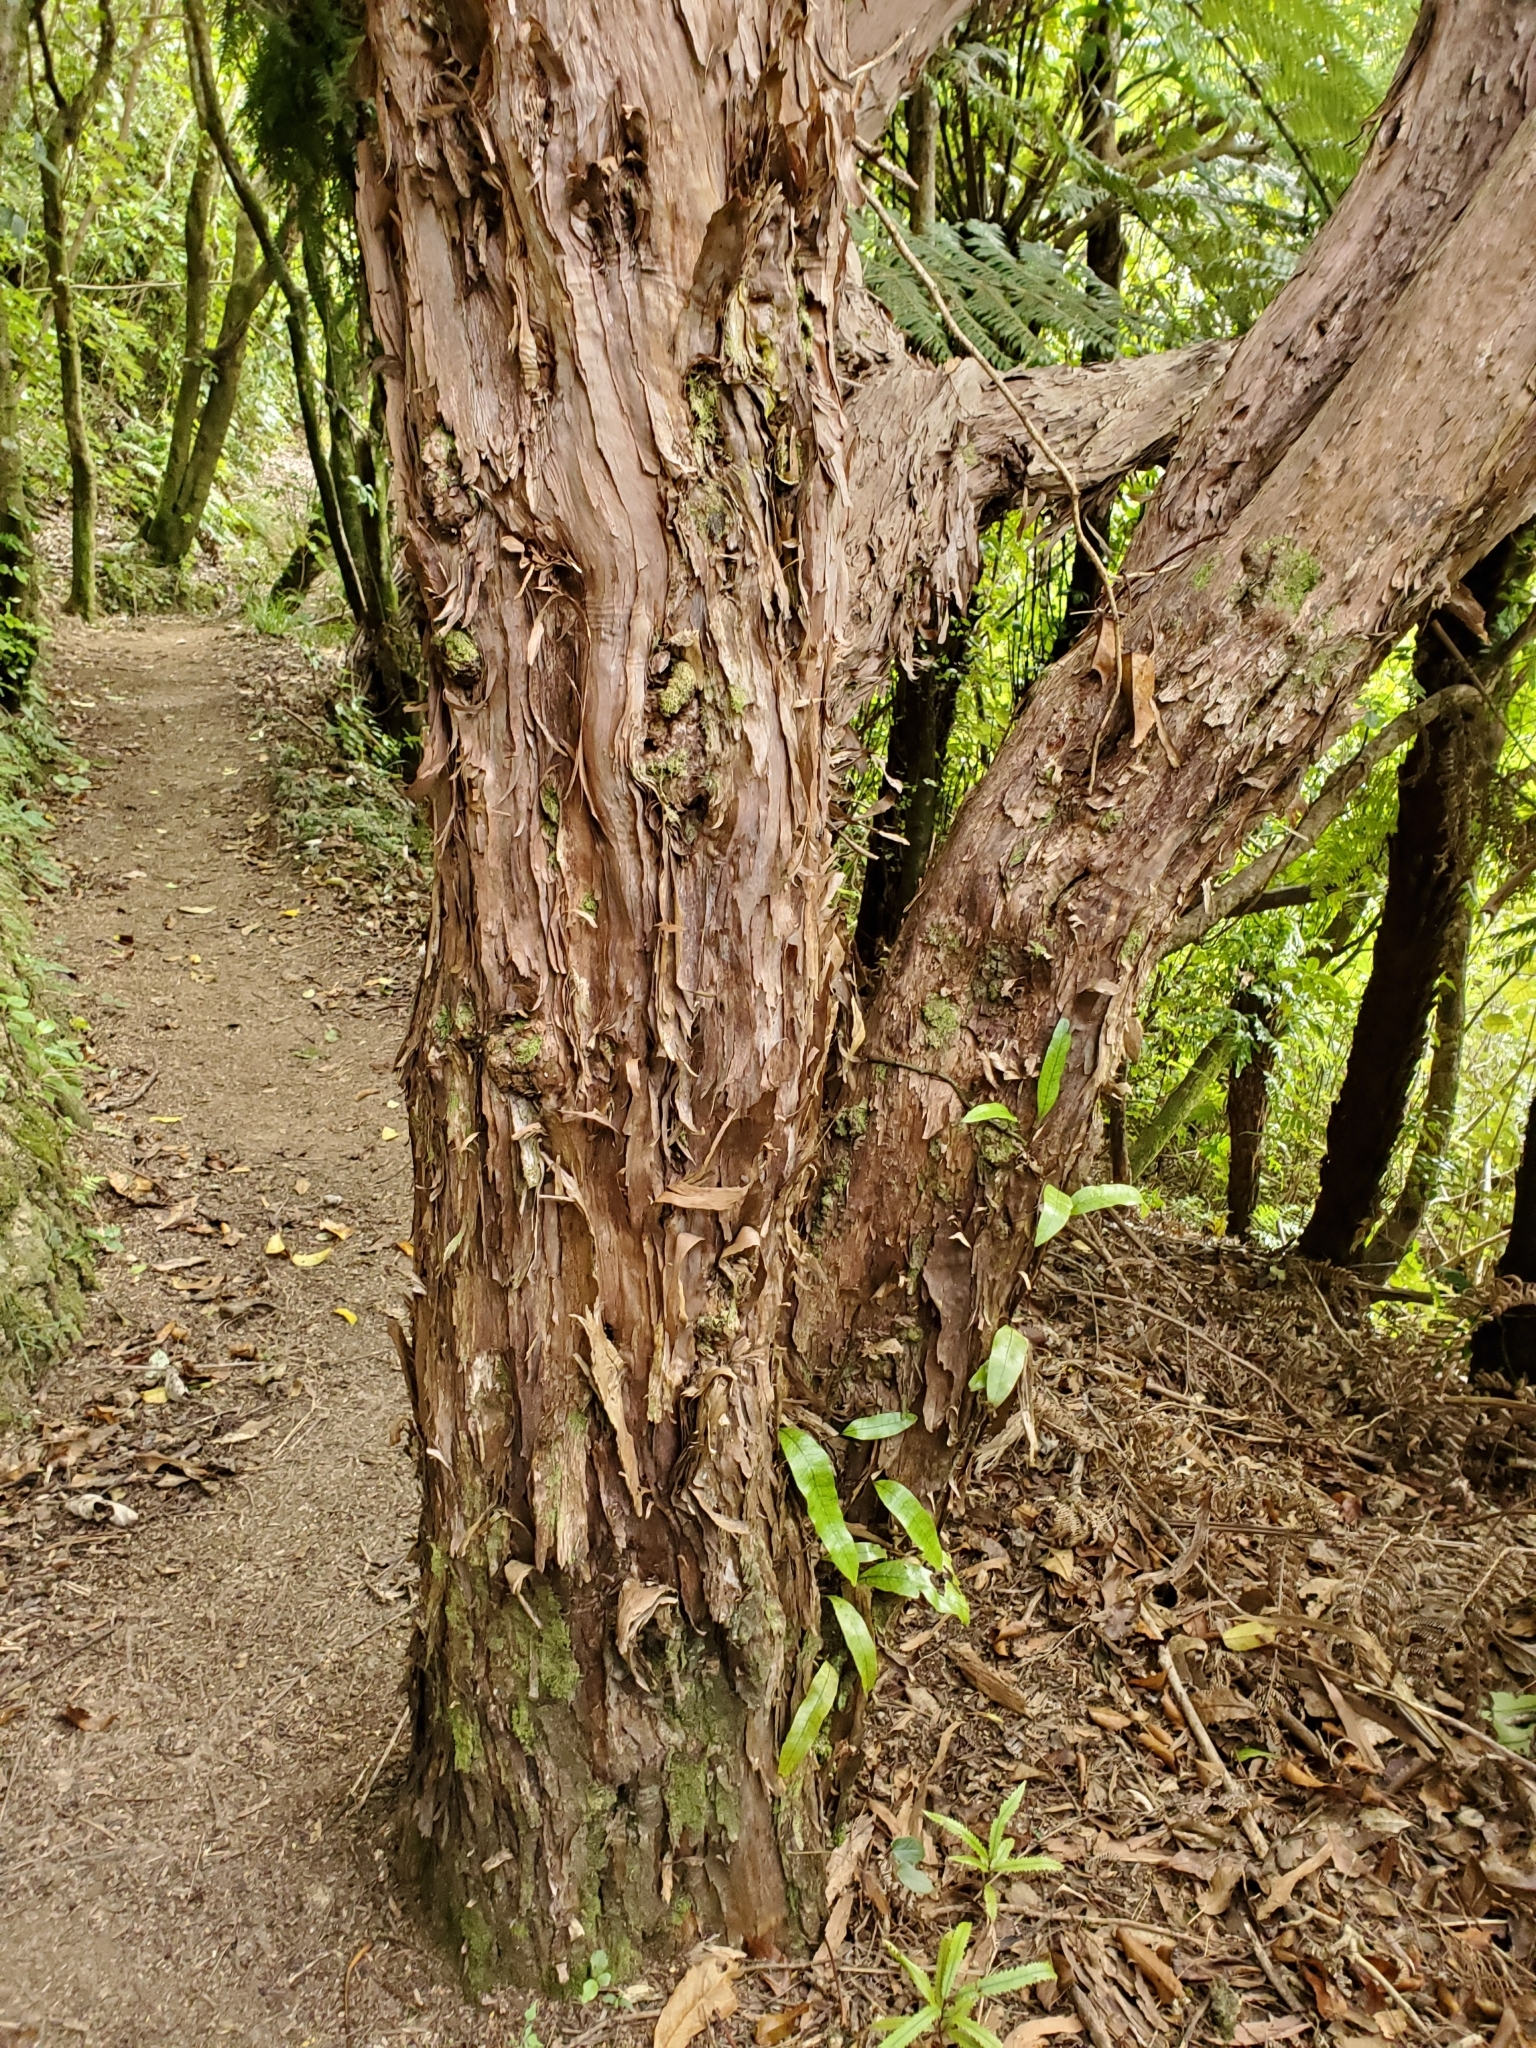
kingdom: Plantae
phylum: Tracheophyta
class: Magnoliopsida
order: Myrtales
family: Myrtaceae
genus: Kunzea
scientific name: Kunzea robusta
